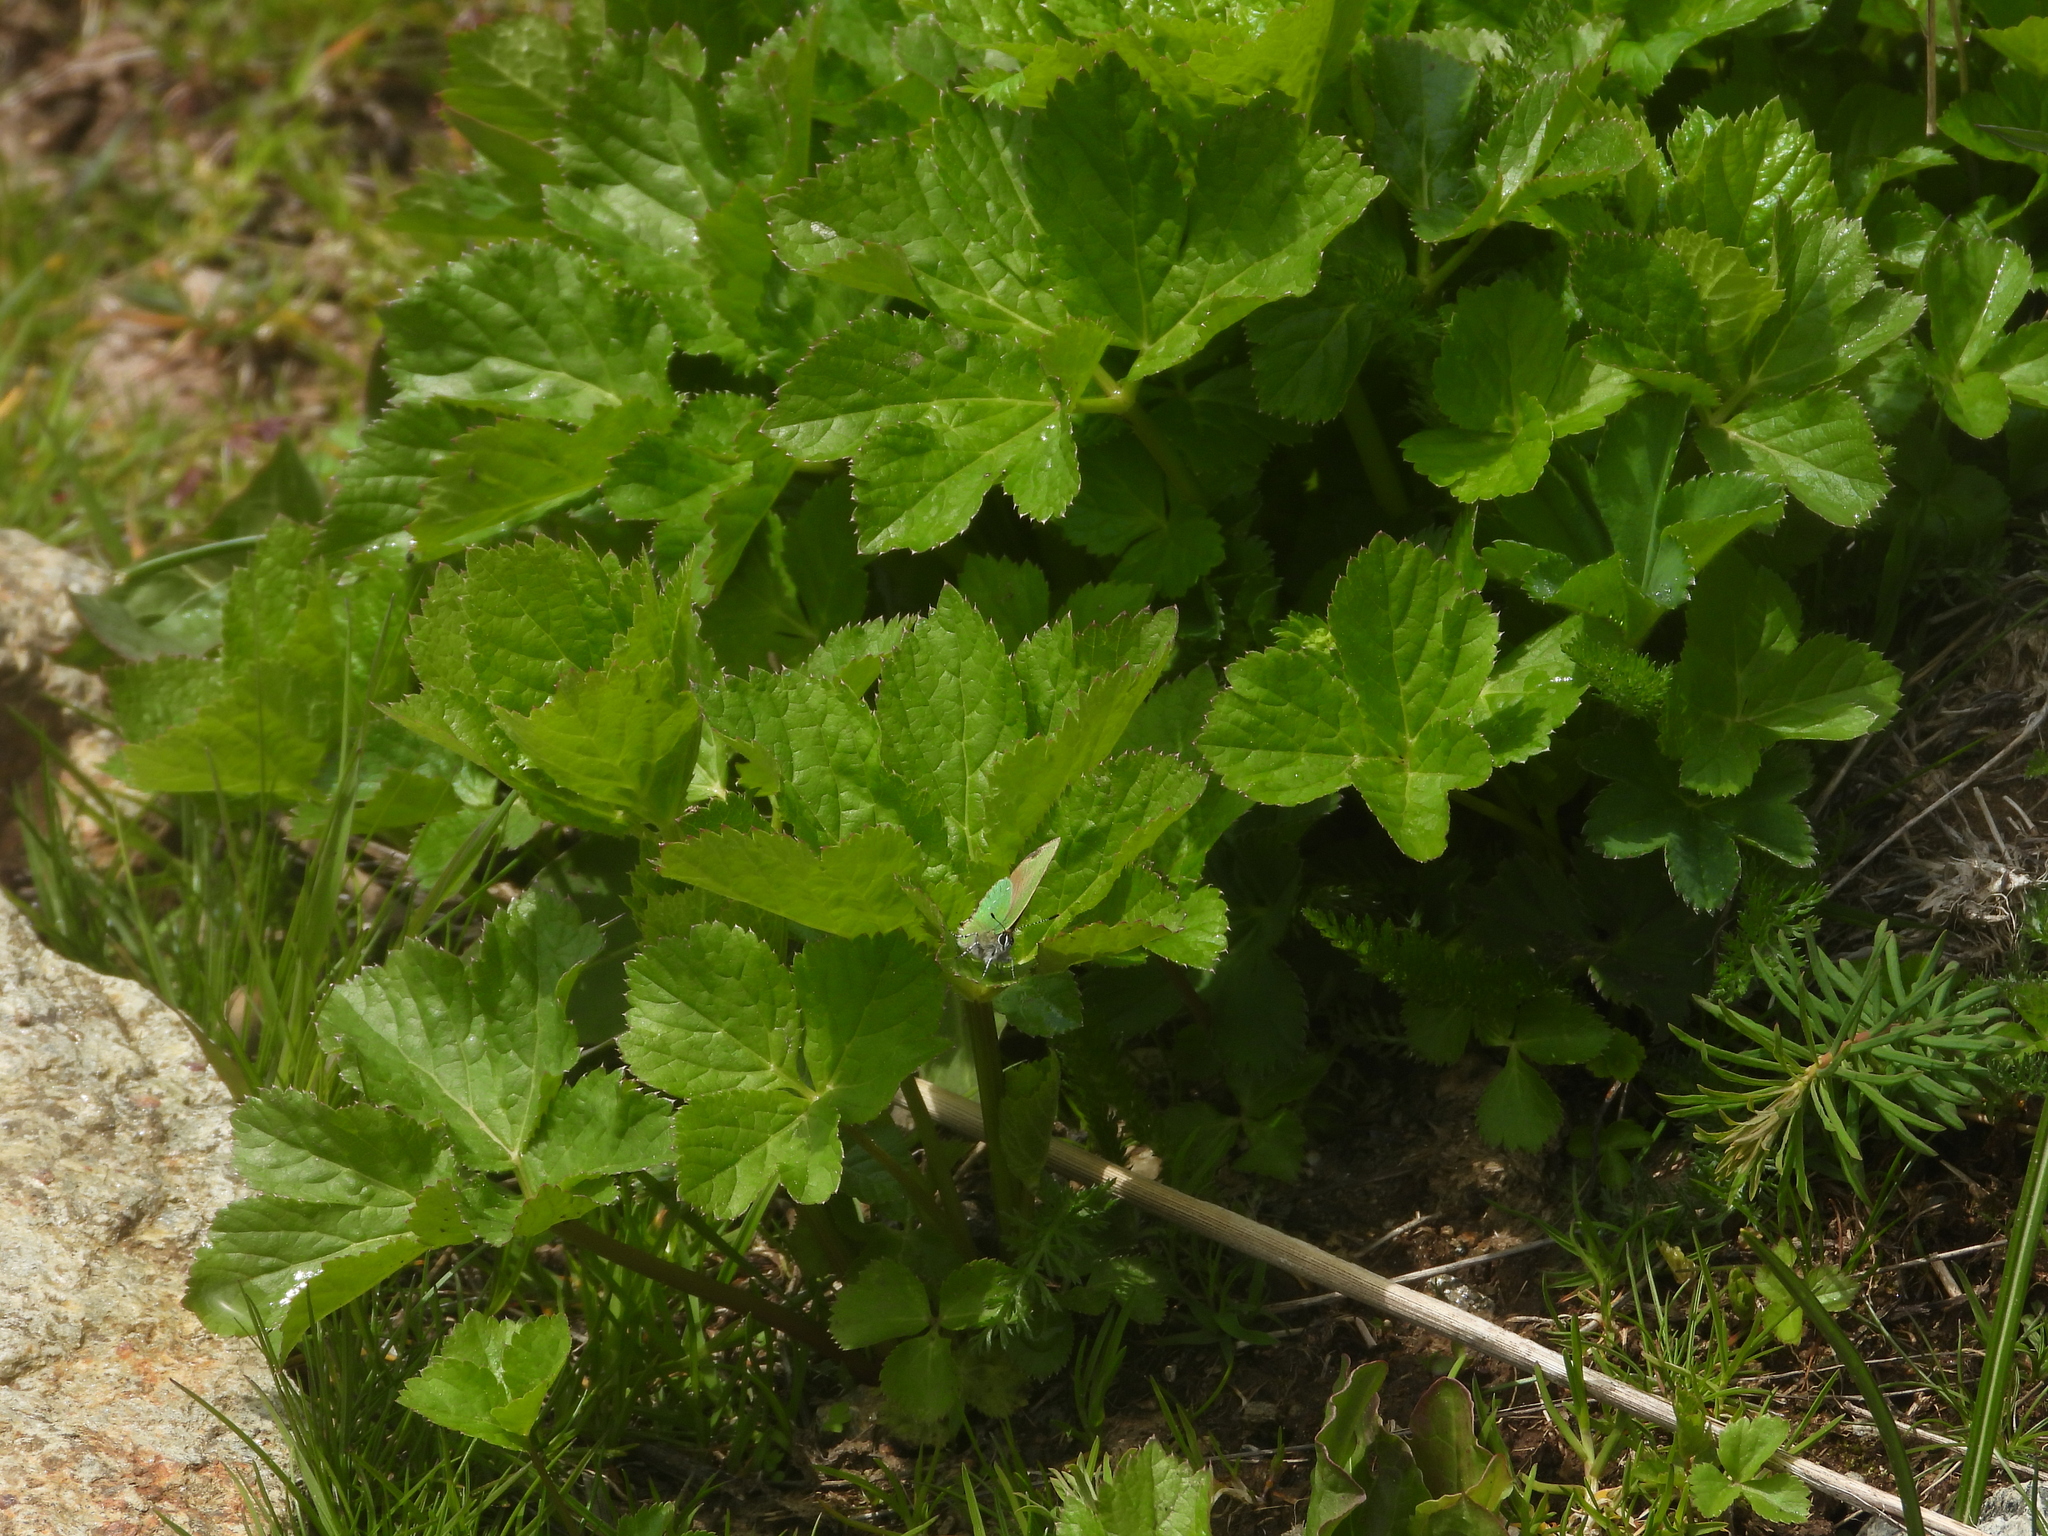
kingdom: Animalia
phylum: Arthropoda
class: Insecta
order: Lepidoptera
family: Lycaenidae
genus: Callophrys
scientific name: Callophrys rubi
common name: Green hairstreak
